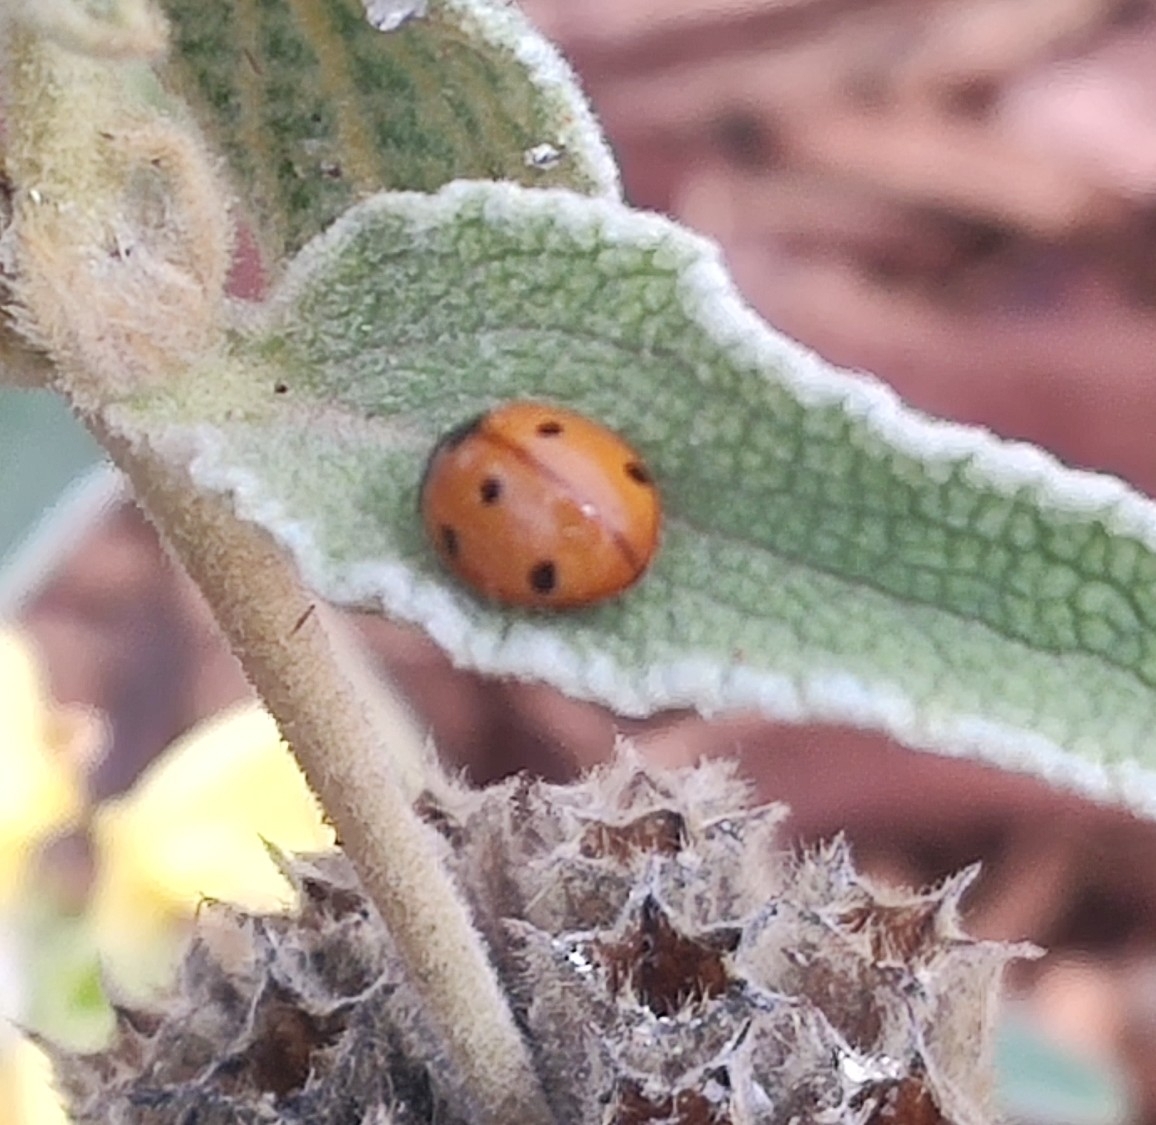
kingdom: Animalia
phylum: Arthropoda
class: Insecta
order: Coleoptera
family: Coccinellidae
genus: Coccinella
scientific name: Coccinella septempunctata
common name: Sevenspotted lady beetle
